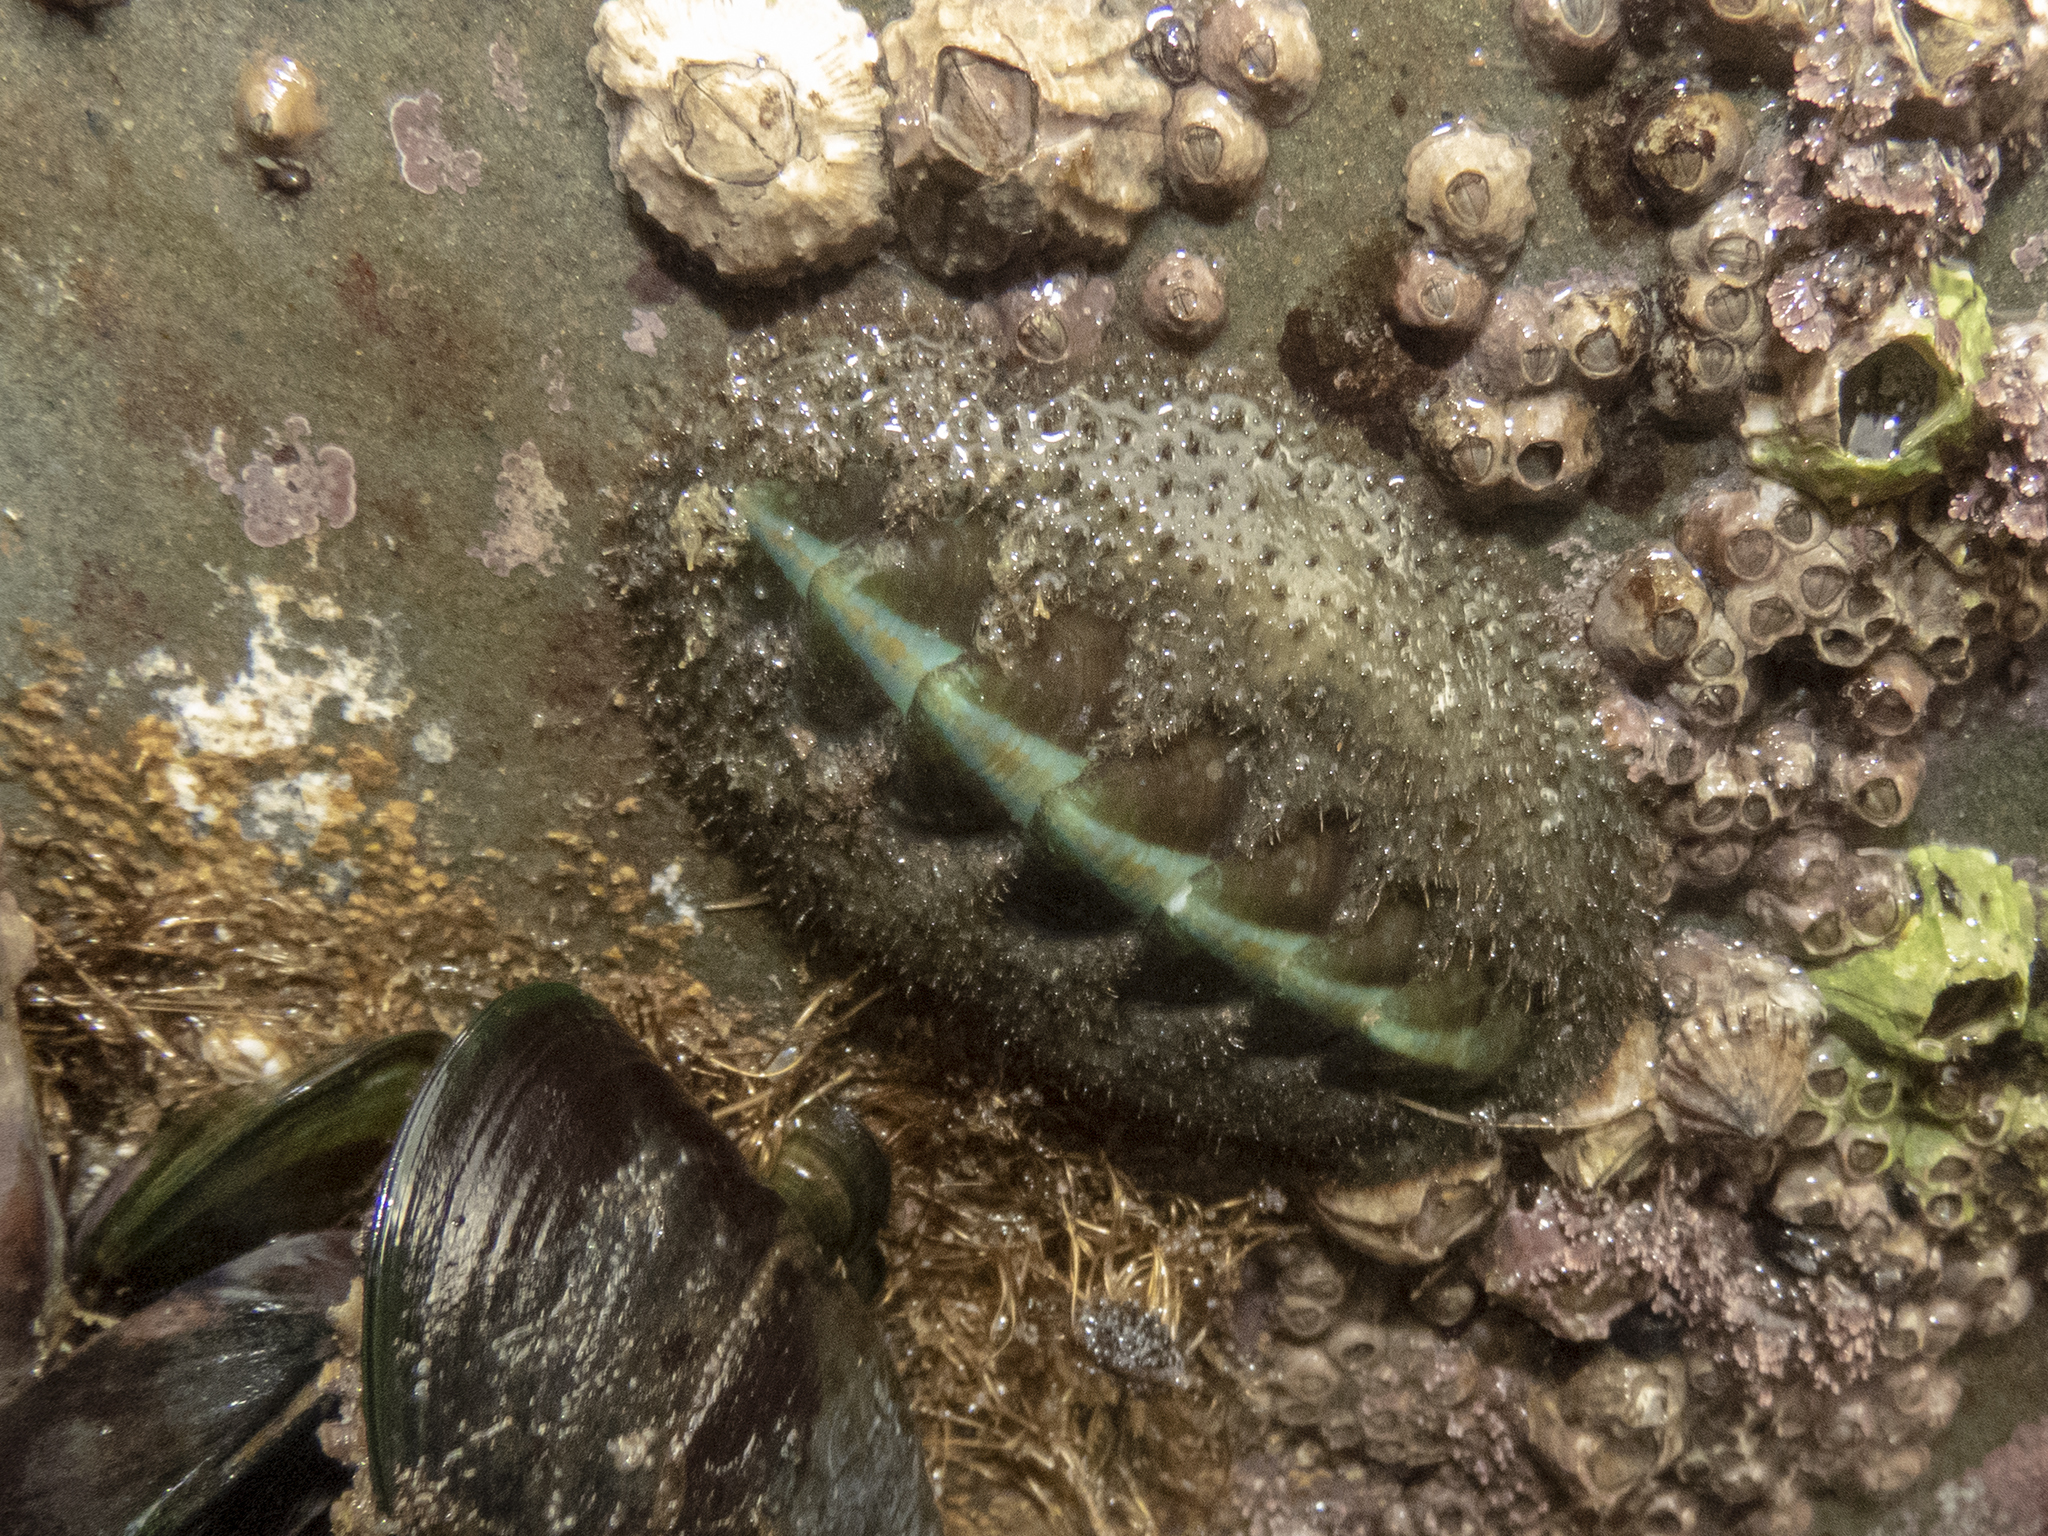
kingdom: Animalia
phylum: Mollusca
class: Polyplacophora
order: Chitonida
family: Mopaliidae
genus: Plaxiphora
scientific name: Plaxiphora obtecta
